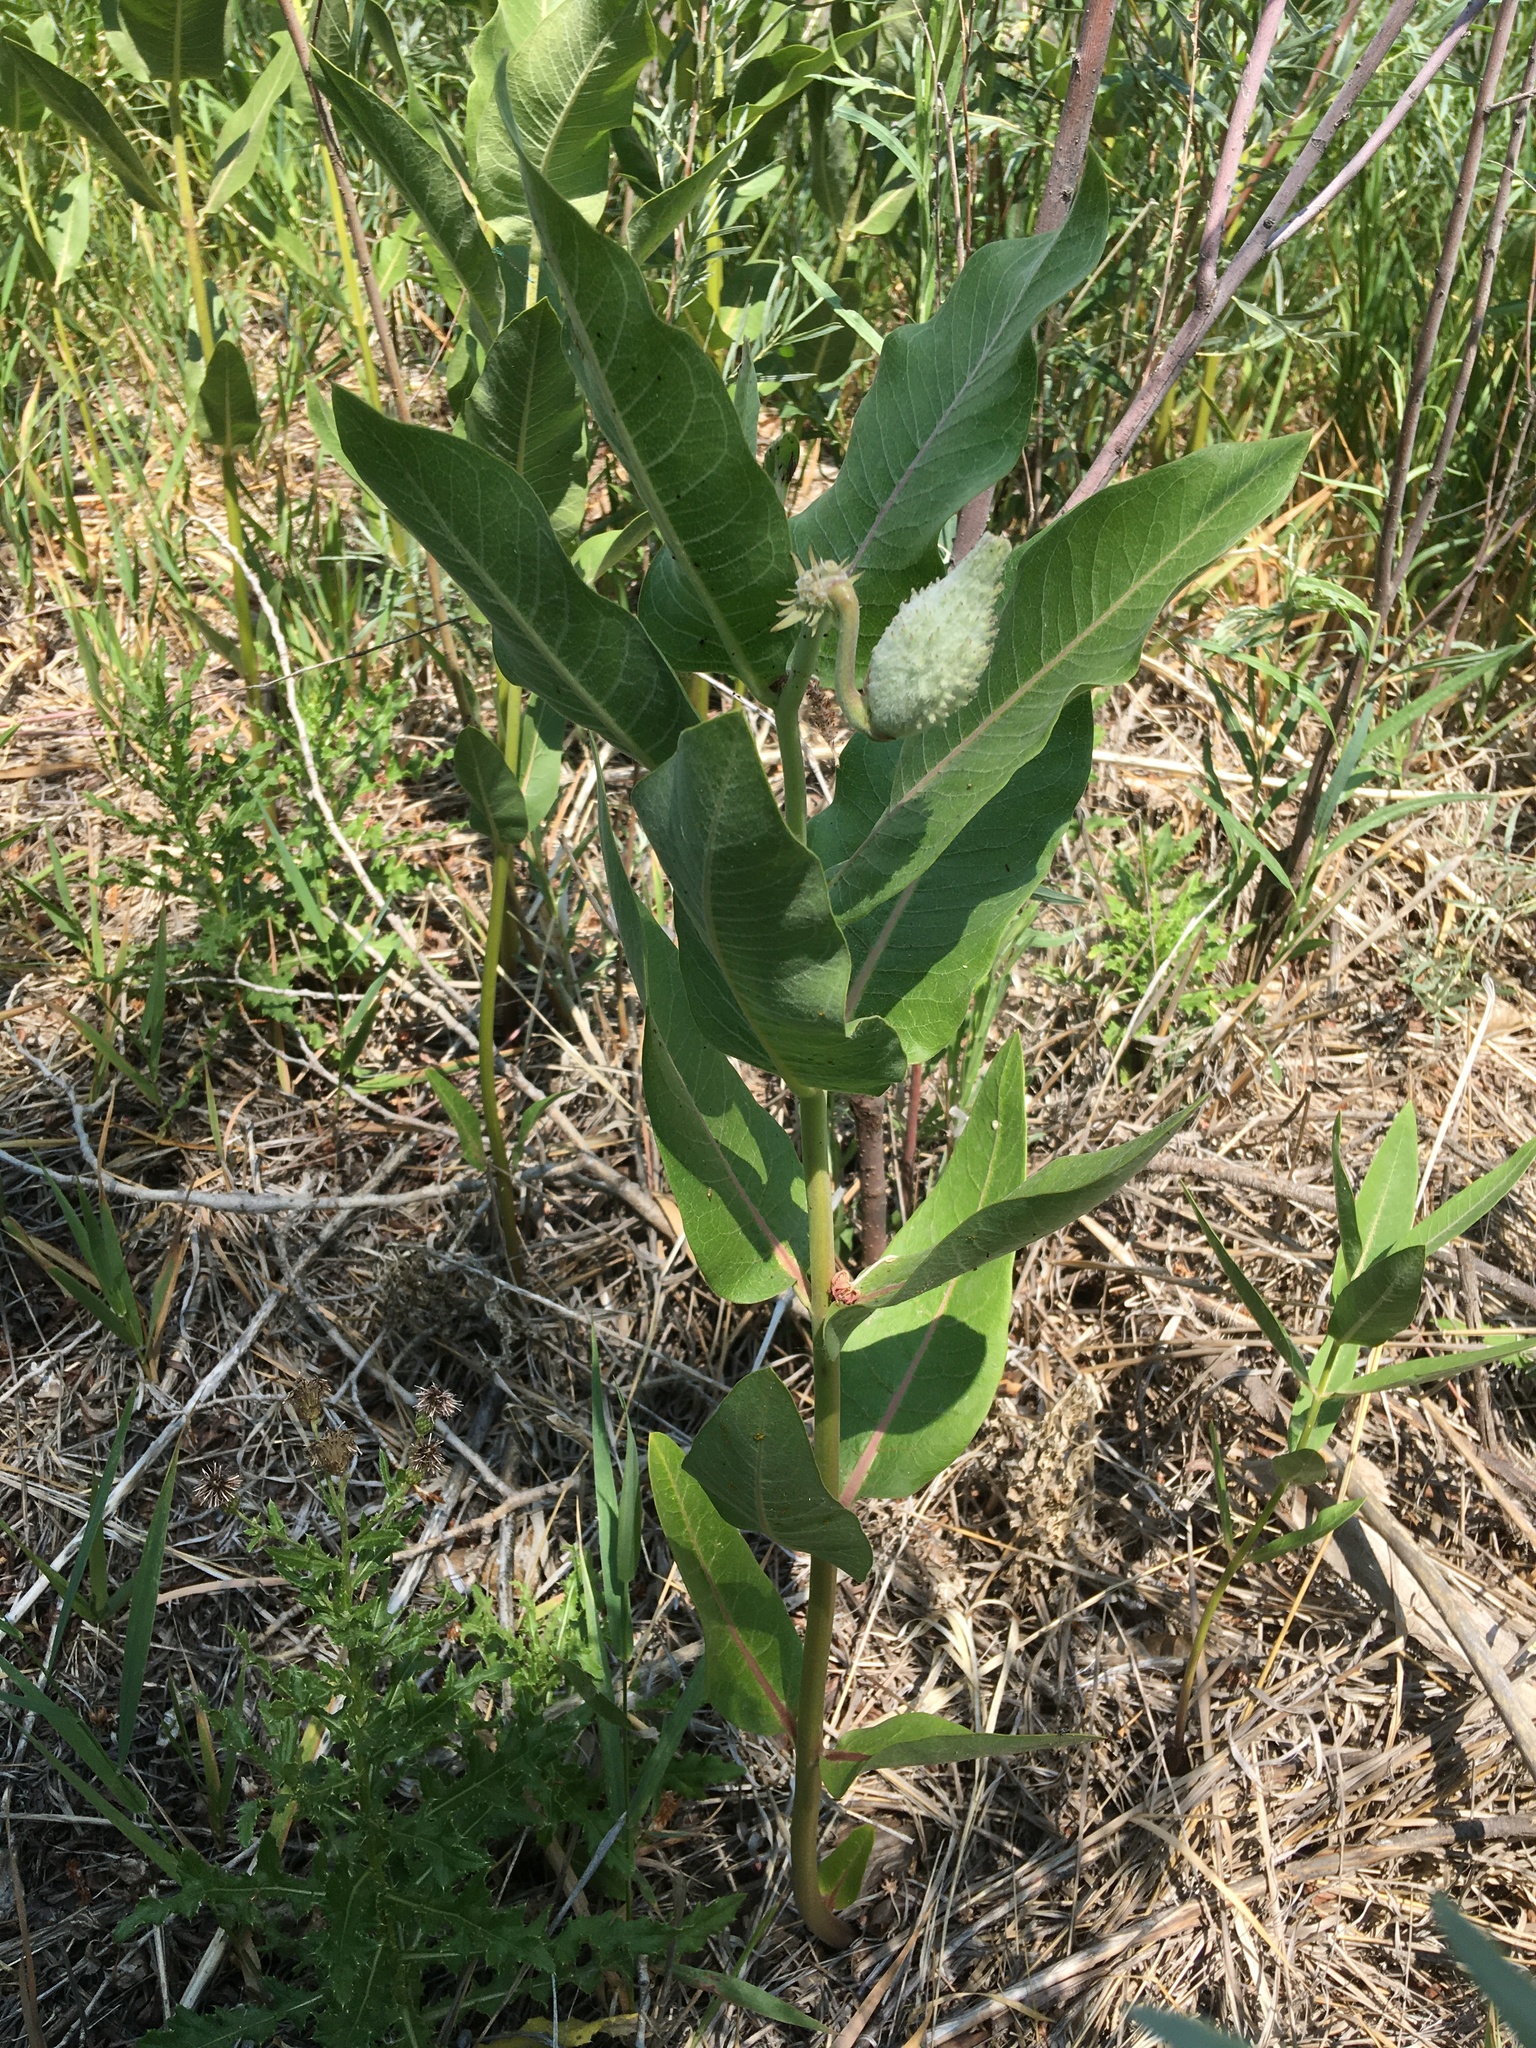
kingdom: Plantae
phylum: Tracheophyta
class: Magnoliopsida
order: Gentianales
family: Apocynaceae
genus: Asclepias
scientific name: Asclepias speciosa
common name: Showy milkweed
